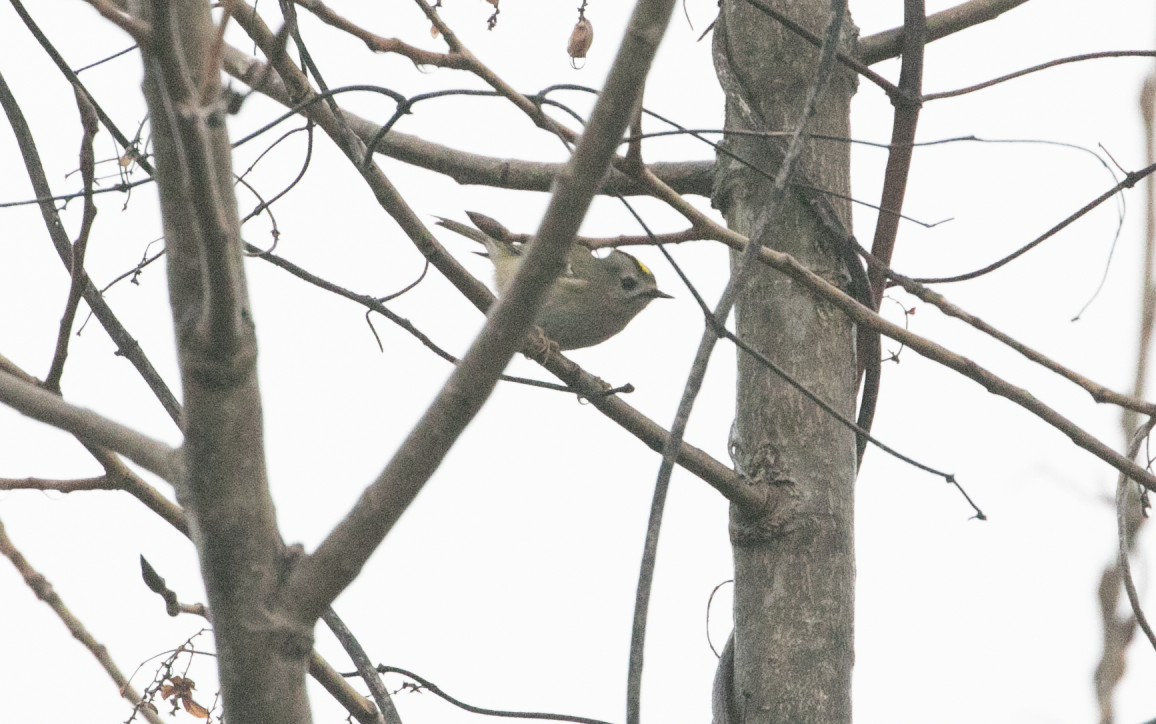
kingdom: Animalia
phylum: Chordata
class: Aves
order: Passeriformes
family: Regulidae
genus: Regulus
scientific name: Regulus regulus
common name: Goldcrest
